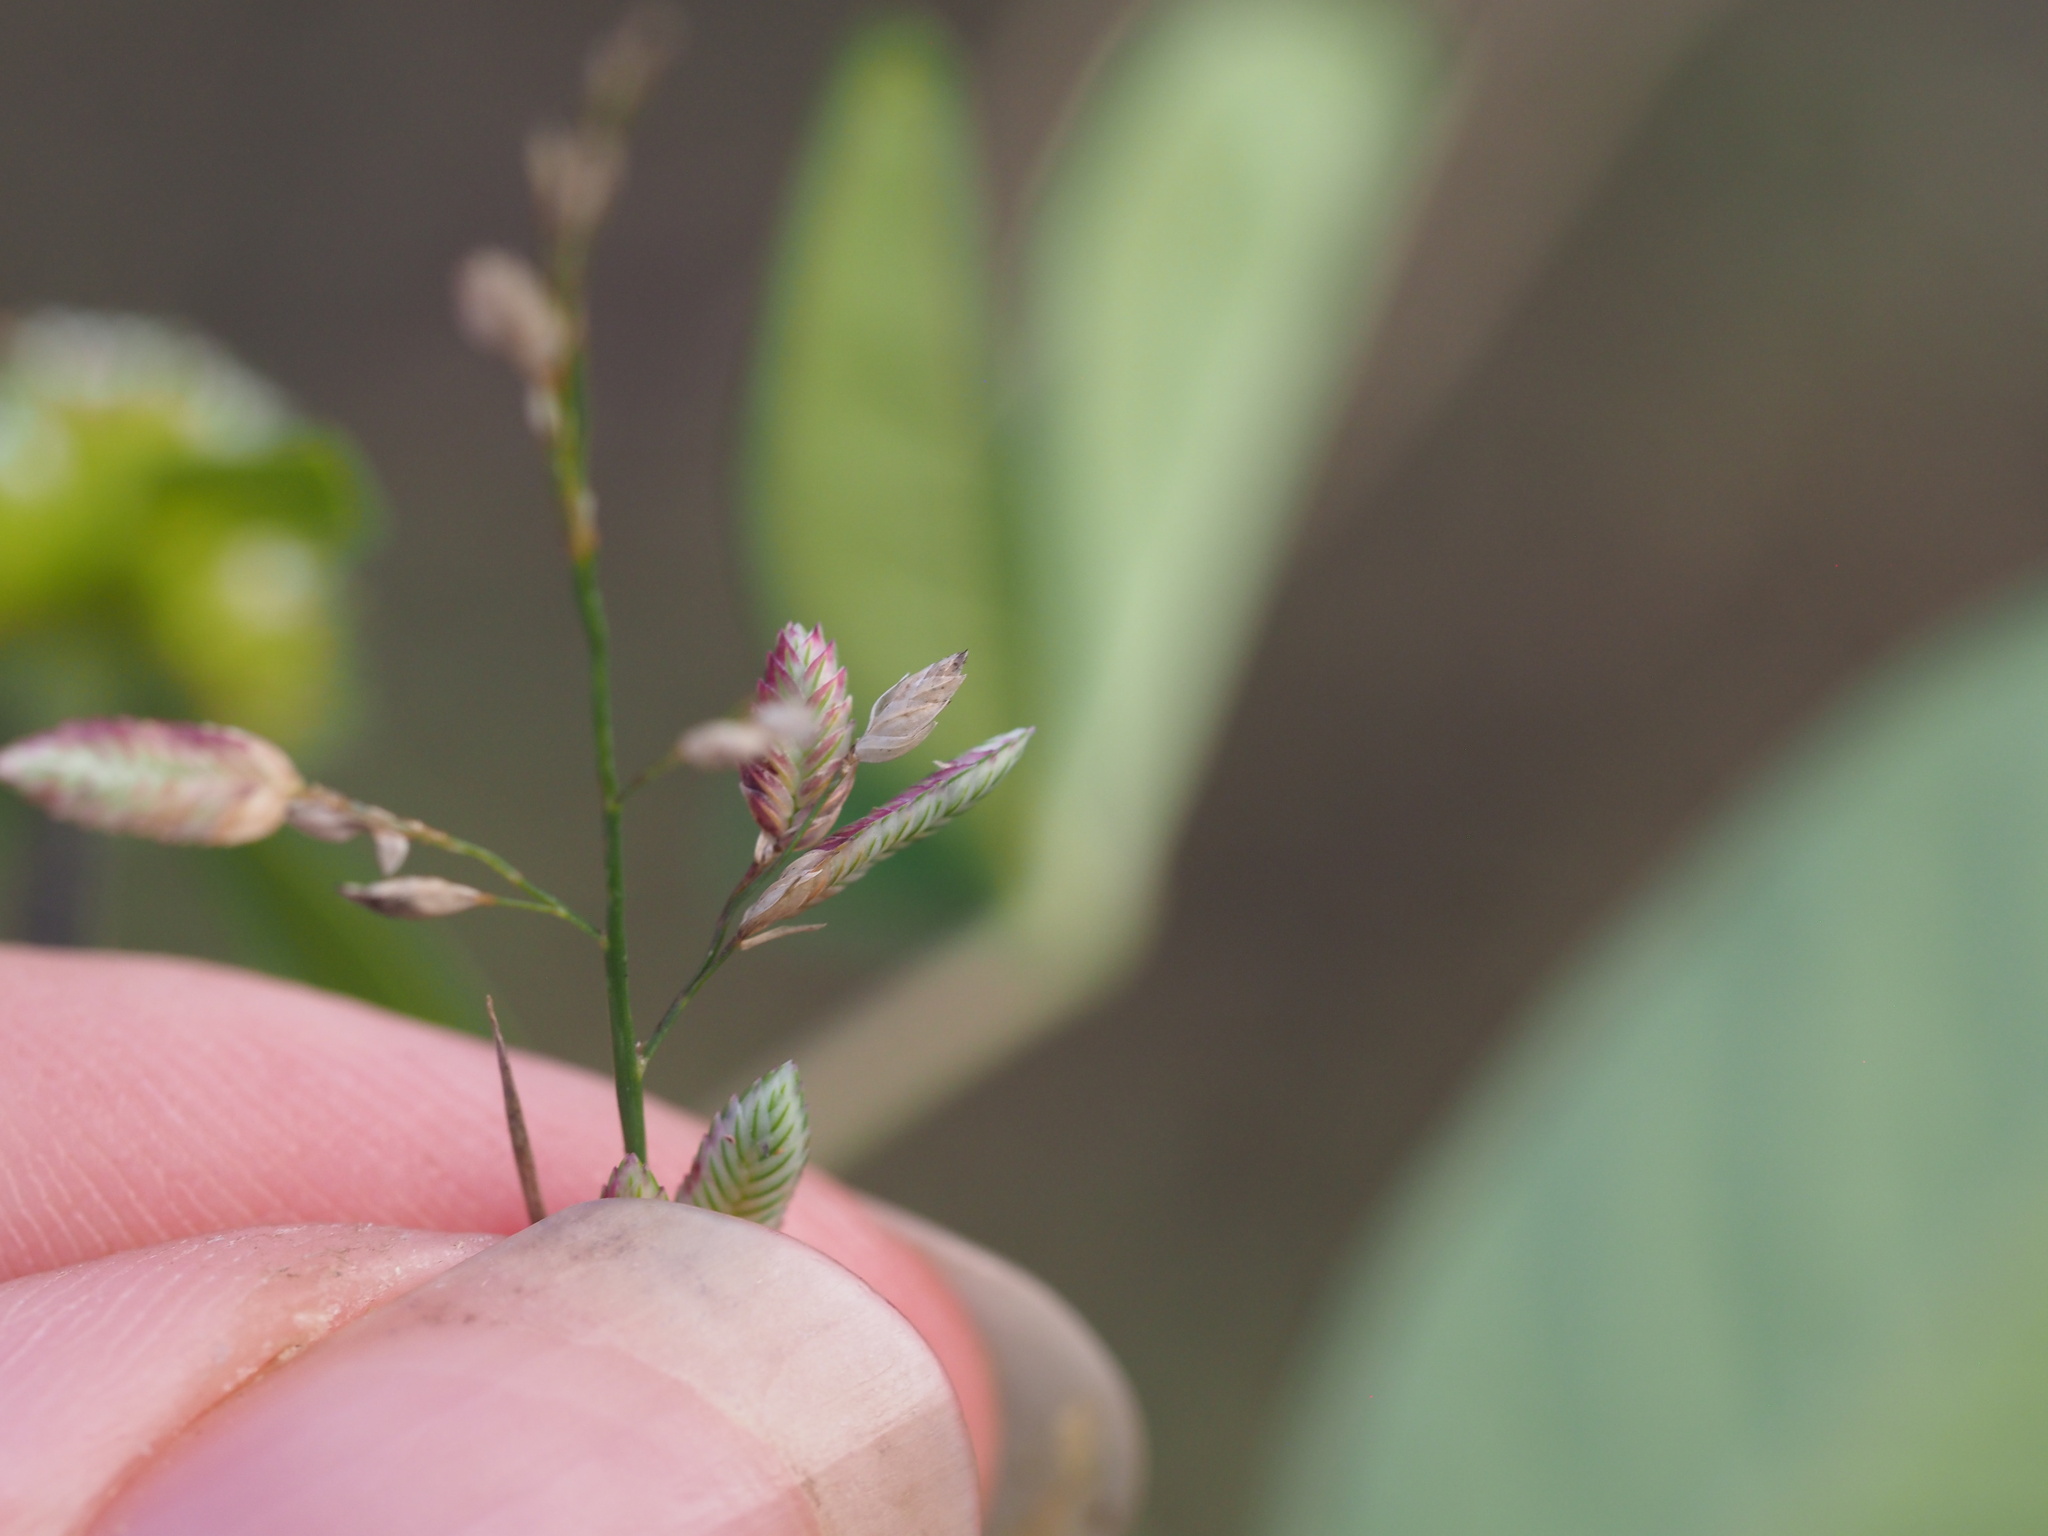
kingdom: Plantae
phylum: Tracheophyta
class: Liliopsida
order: Poales
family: Poaceae
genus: Eragrostis
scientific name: Eragrostis unioloides
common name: Chinese lovegrass
